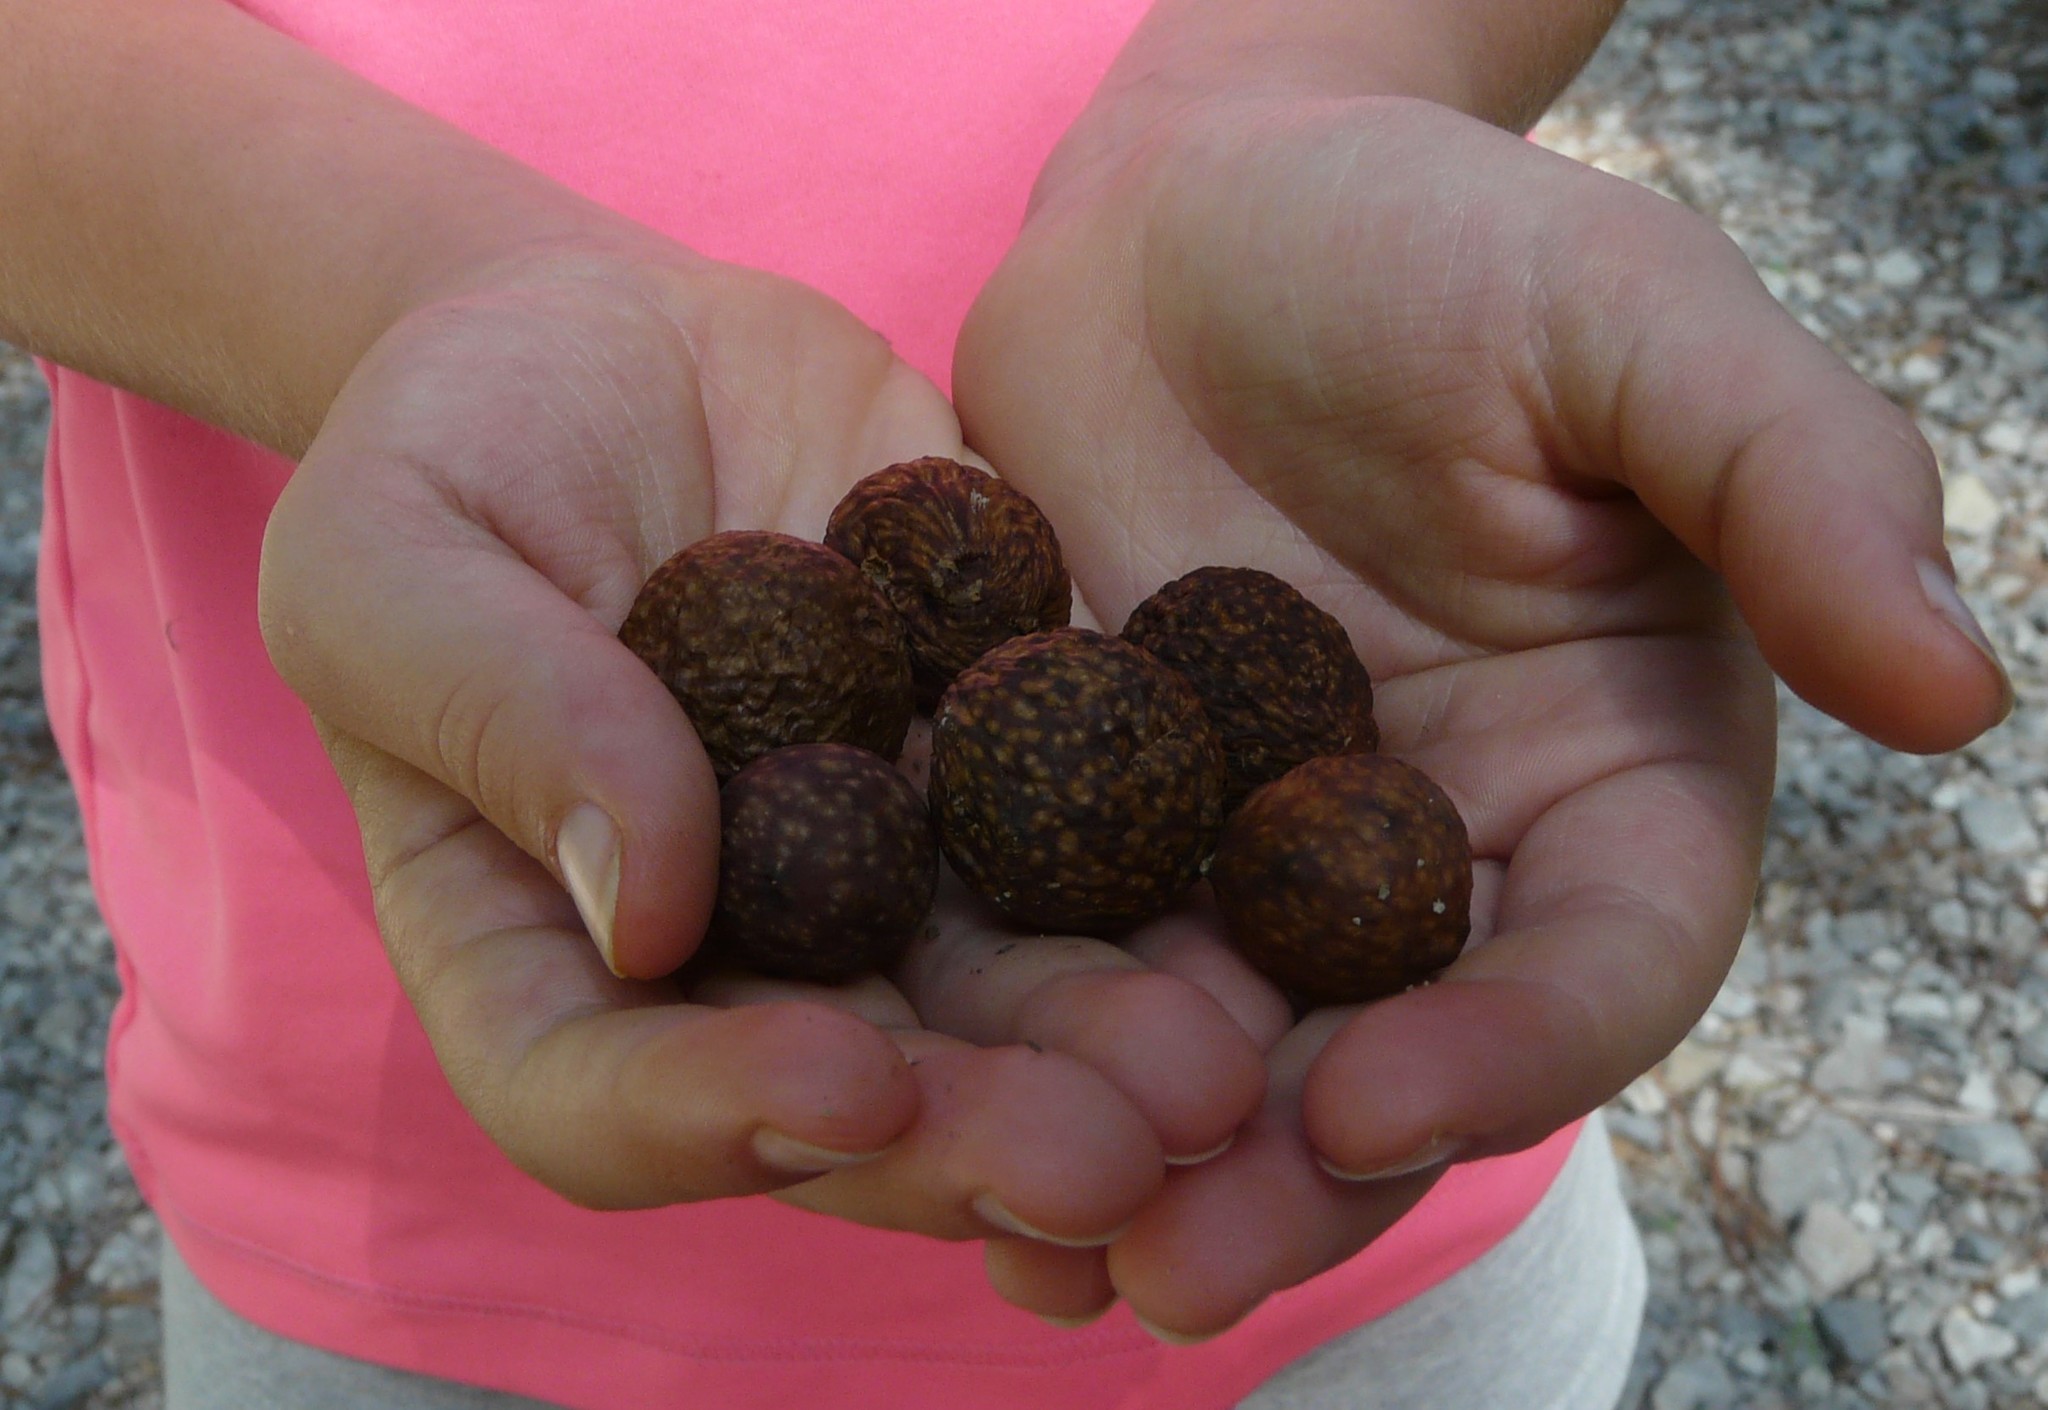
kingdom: Animalia
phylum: Arthropoda
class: Insecta
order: Hymenoptera
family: Cynipidae
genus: Amphibolips
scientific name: Amphibolips
